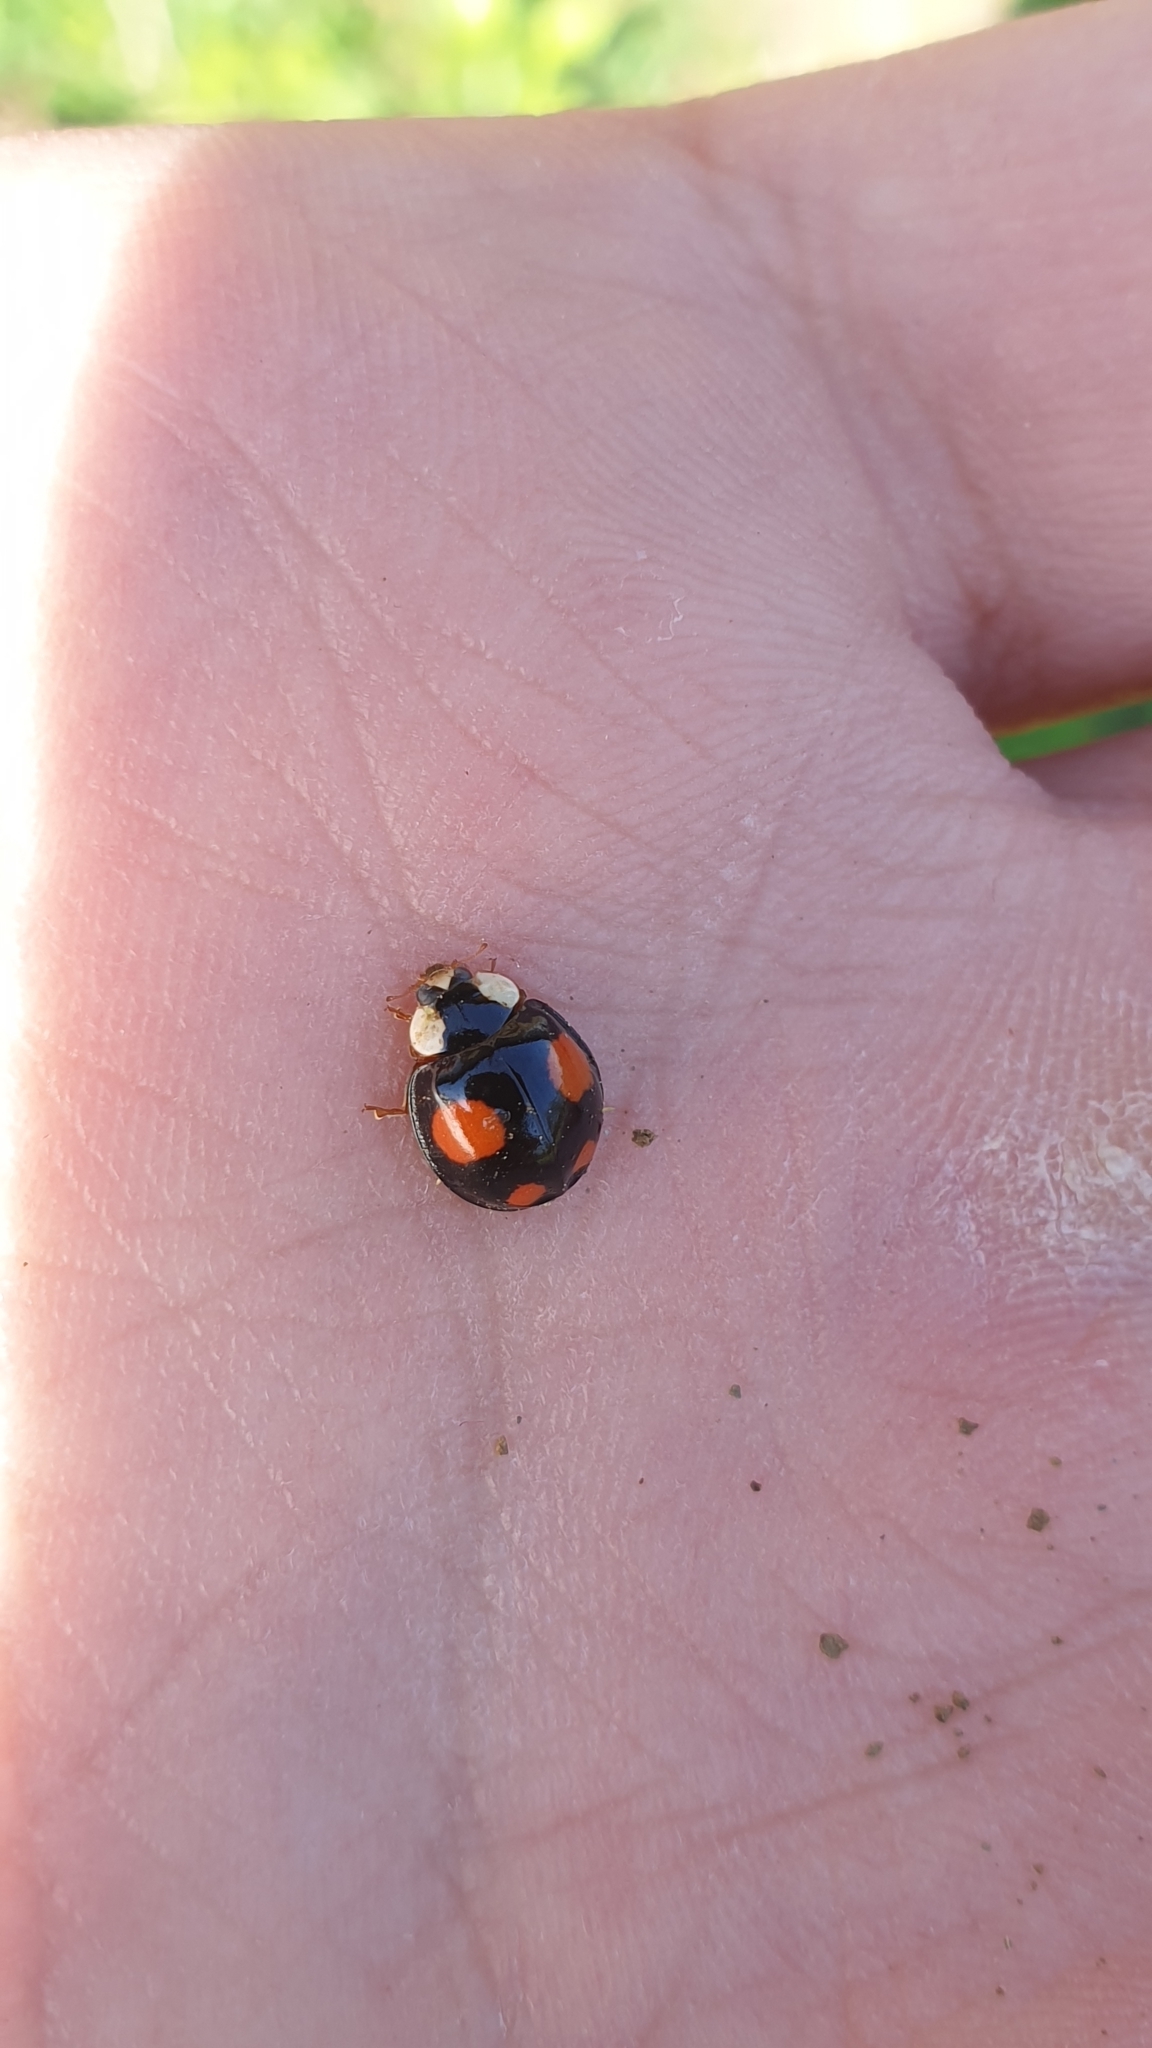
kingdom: Animalia
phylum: Arthropoda
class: Insecta
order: Coleoptera
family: Coccinellidae
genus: Harmonia
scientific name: Harmonia axyridis
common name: Harlequin ladybird
